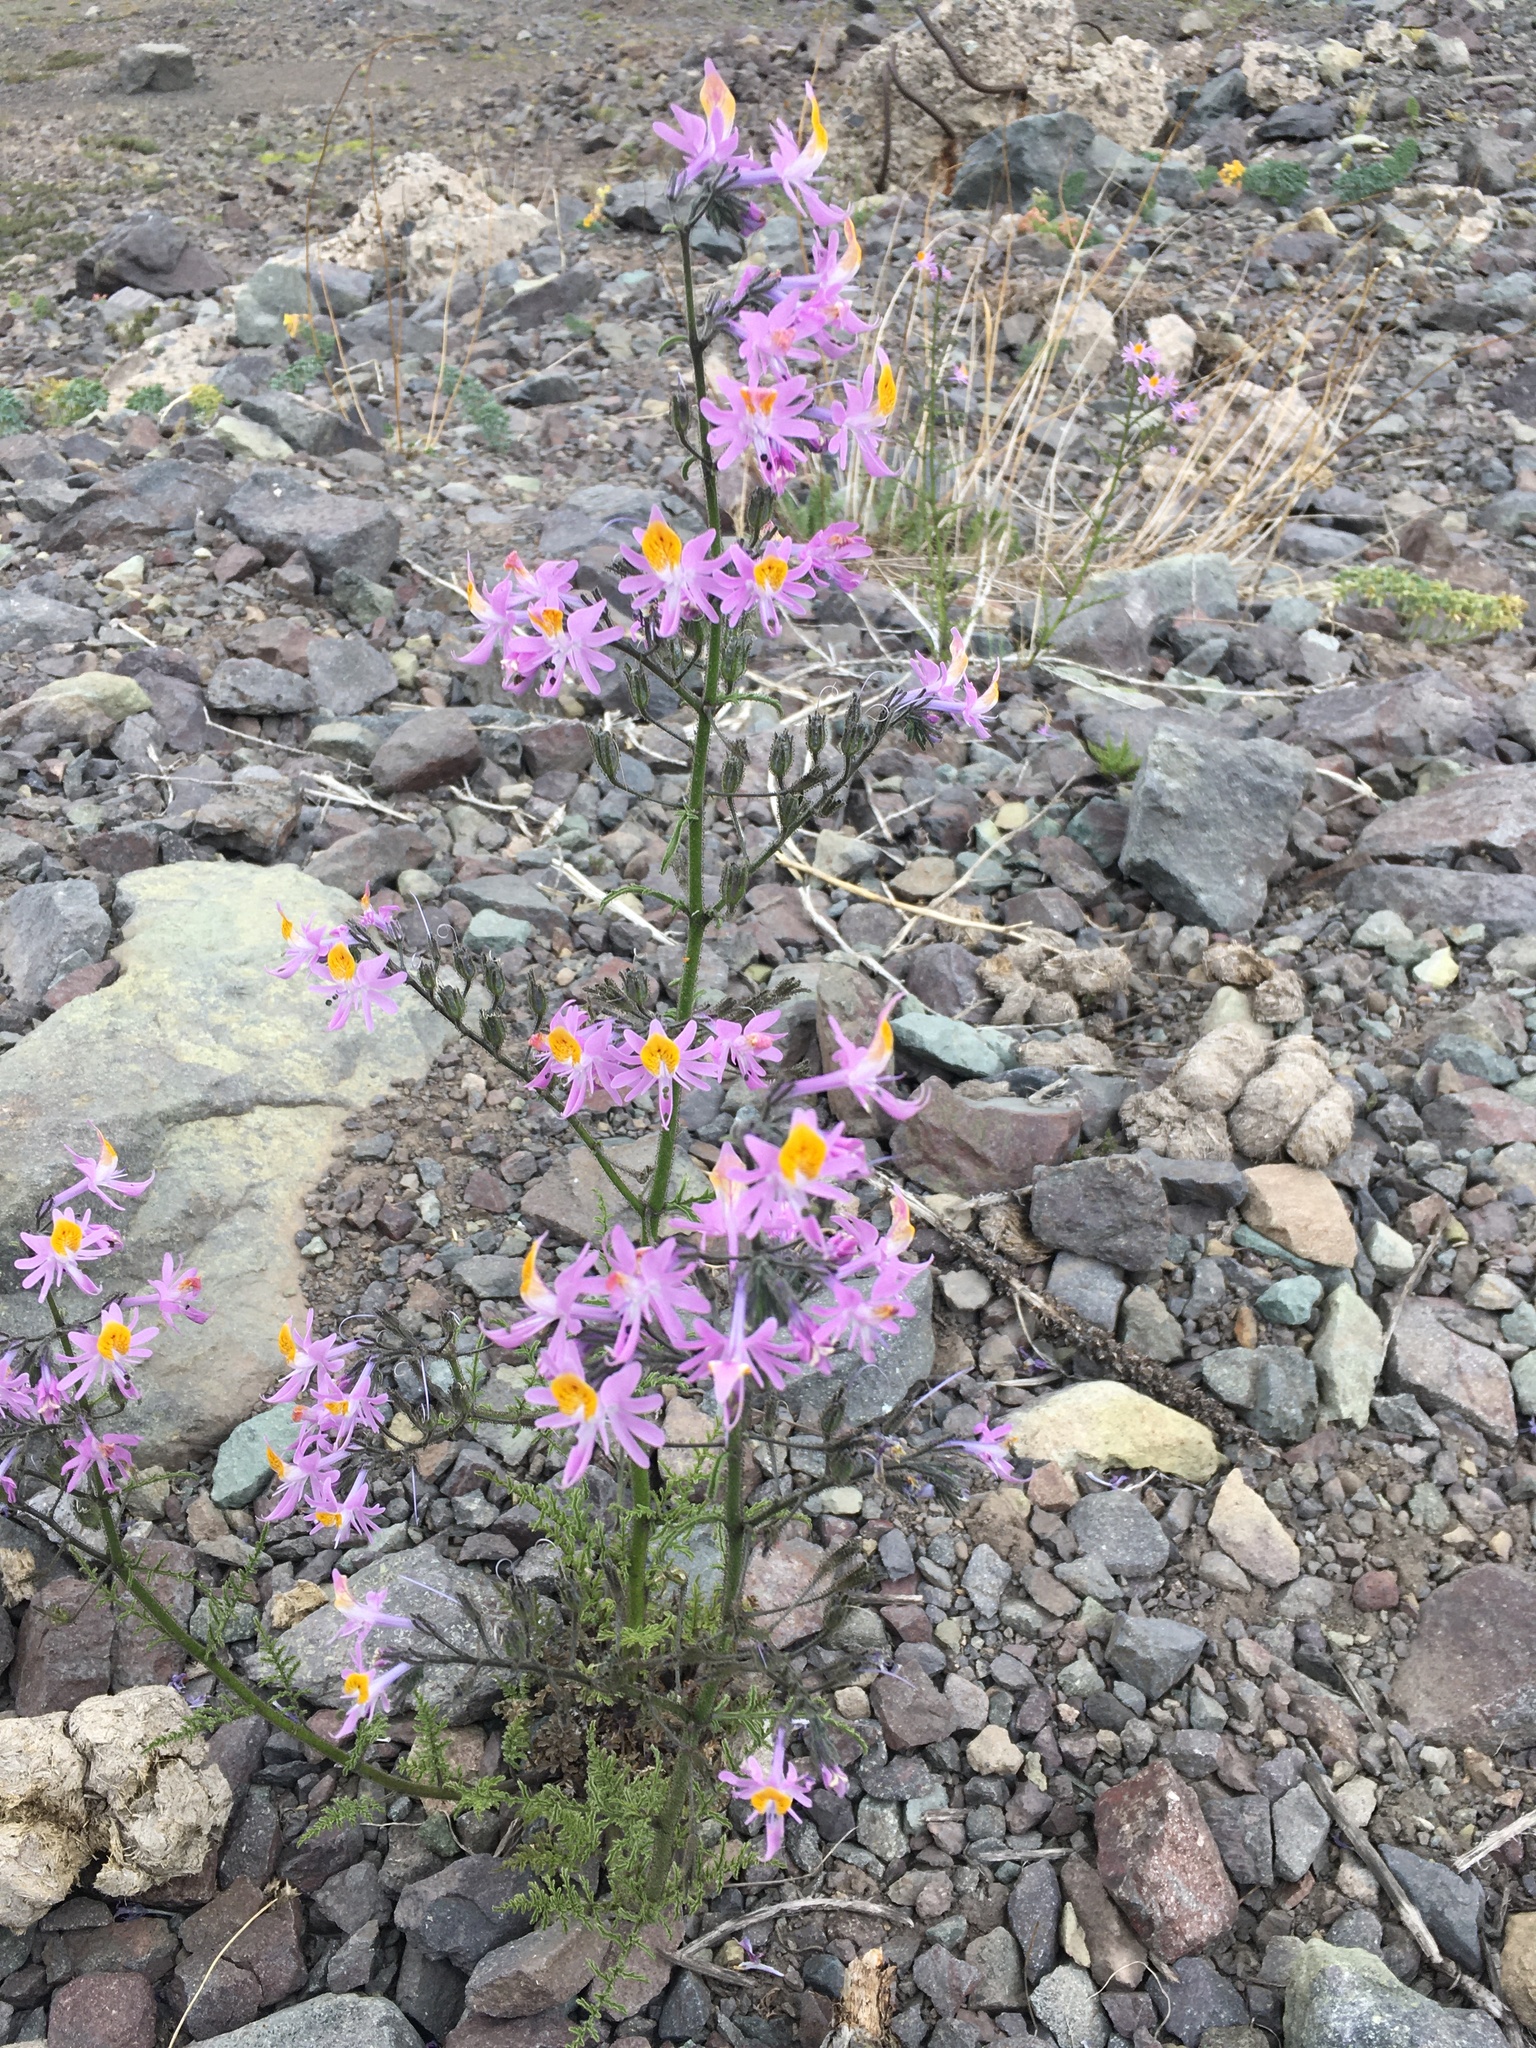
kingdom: Plantae
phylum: Tracheophyta
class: Magnoliopsida
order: Solanales
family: Solanaceae
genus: Schizanthus
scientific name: Schizanthus hookeri
